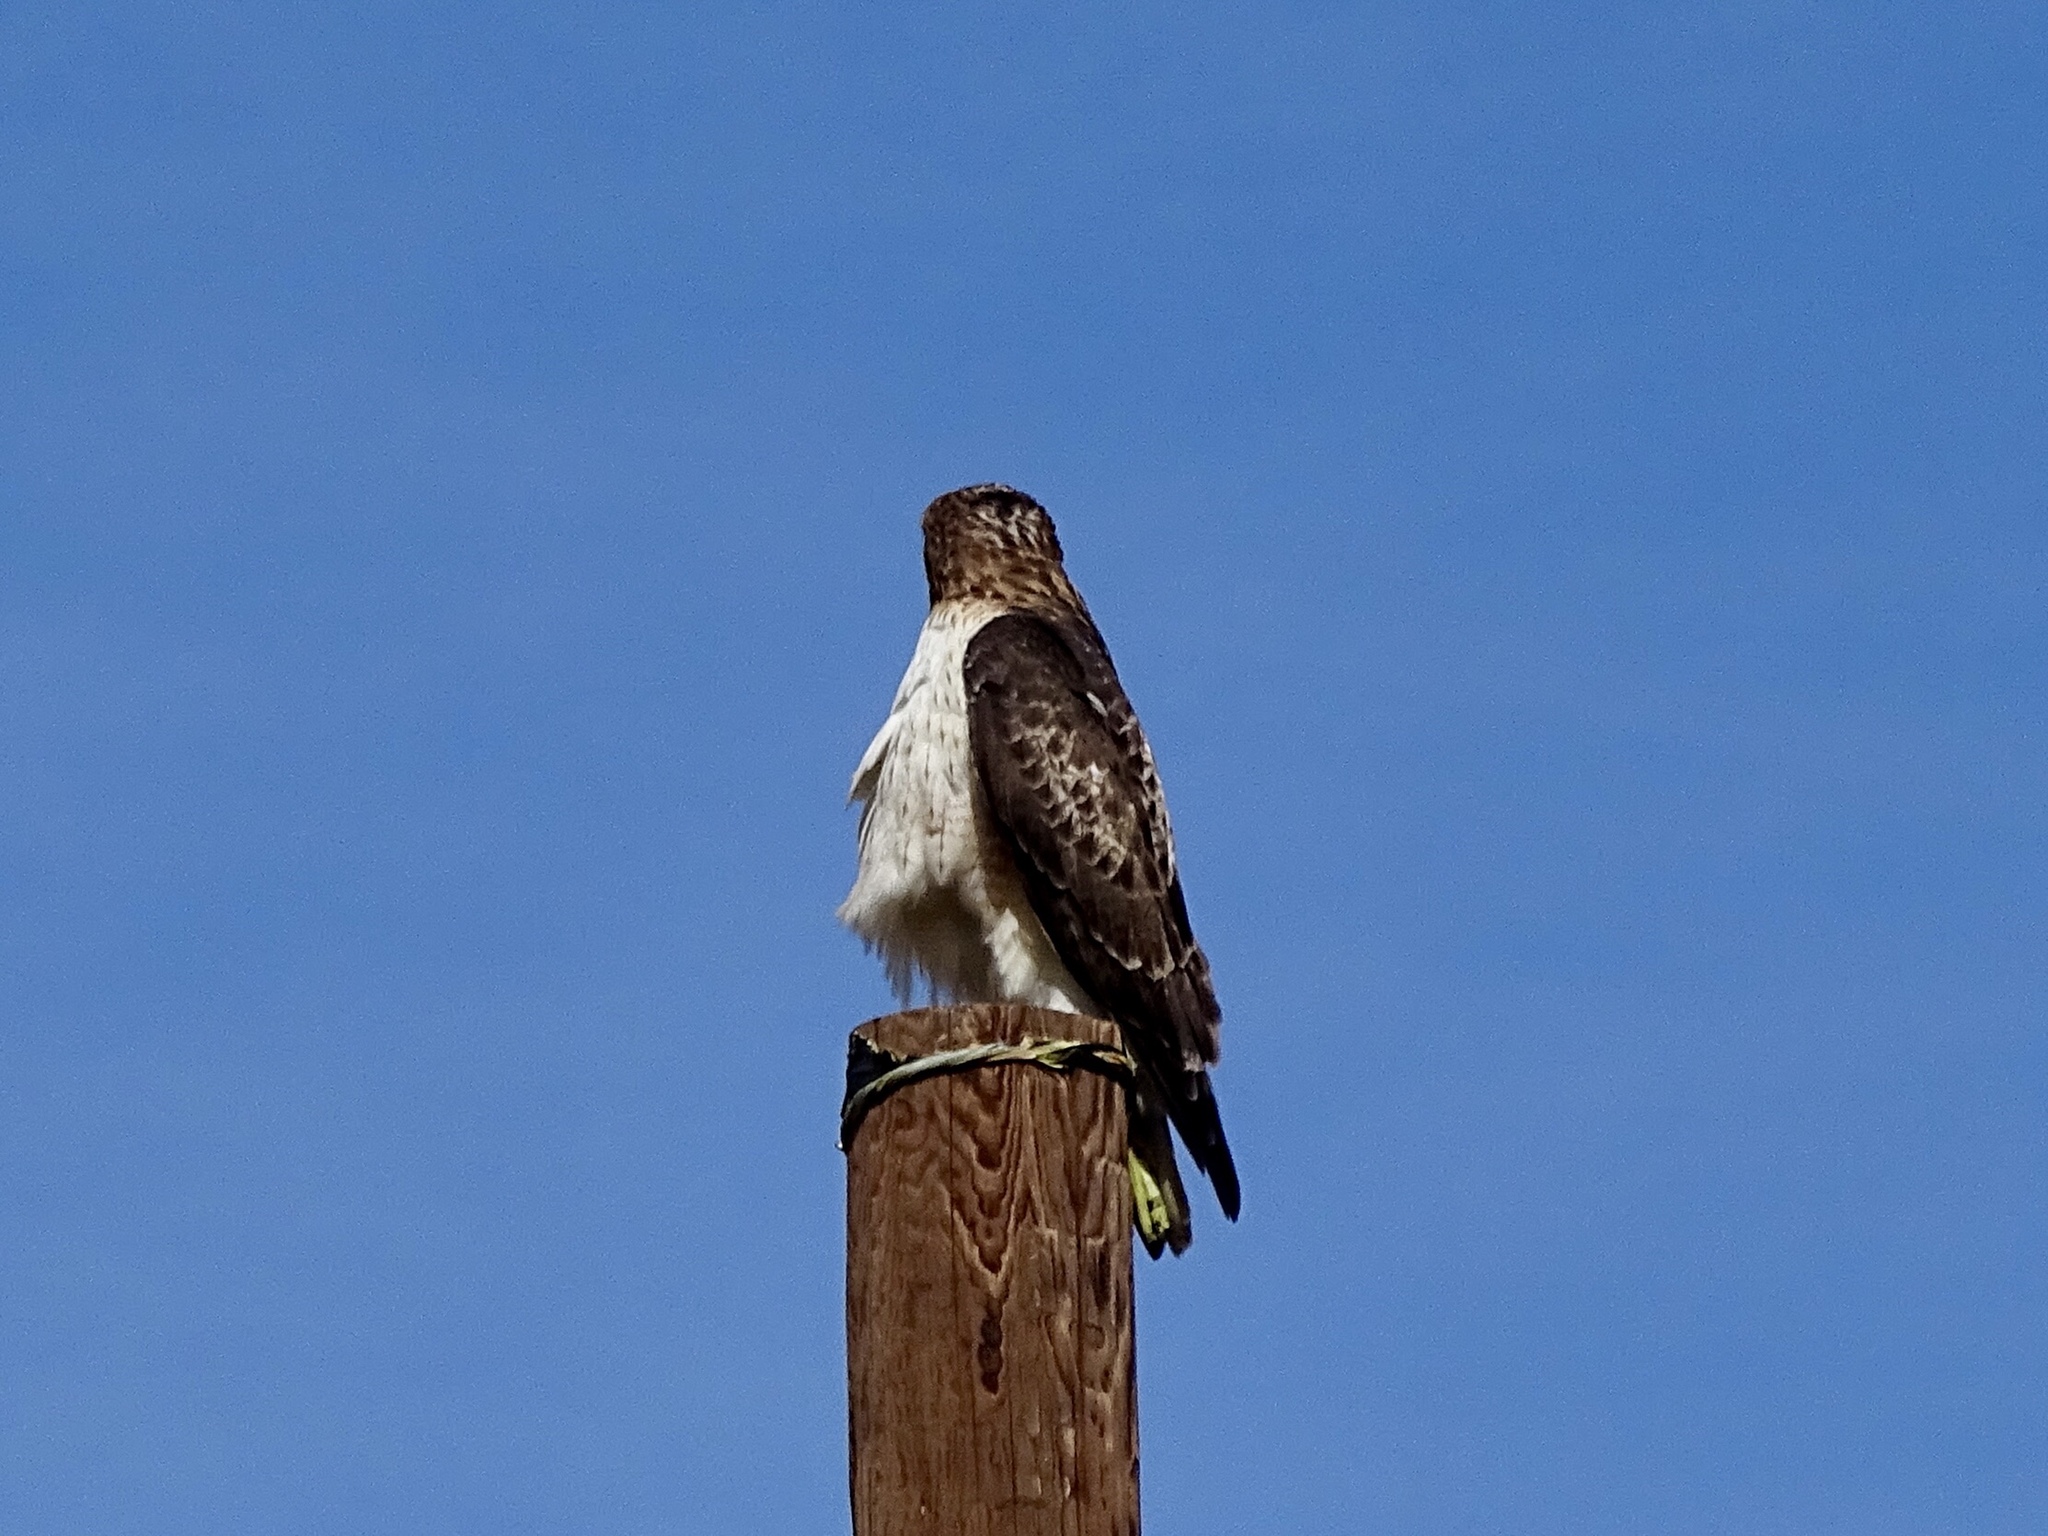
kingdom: Animalia
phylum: Chordata
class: Aves
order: Accipitriformes
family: Accipitridae
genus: Buteo
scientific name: Buteo jamaicensis
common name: Red-tailed hawk
